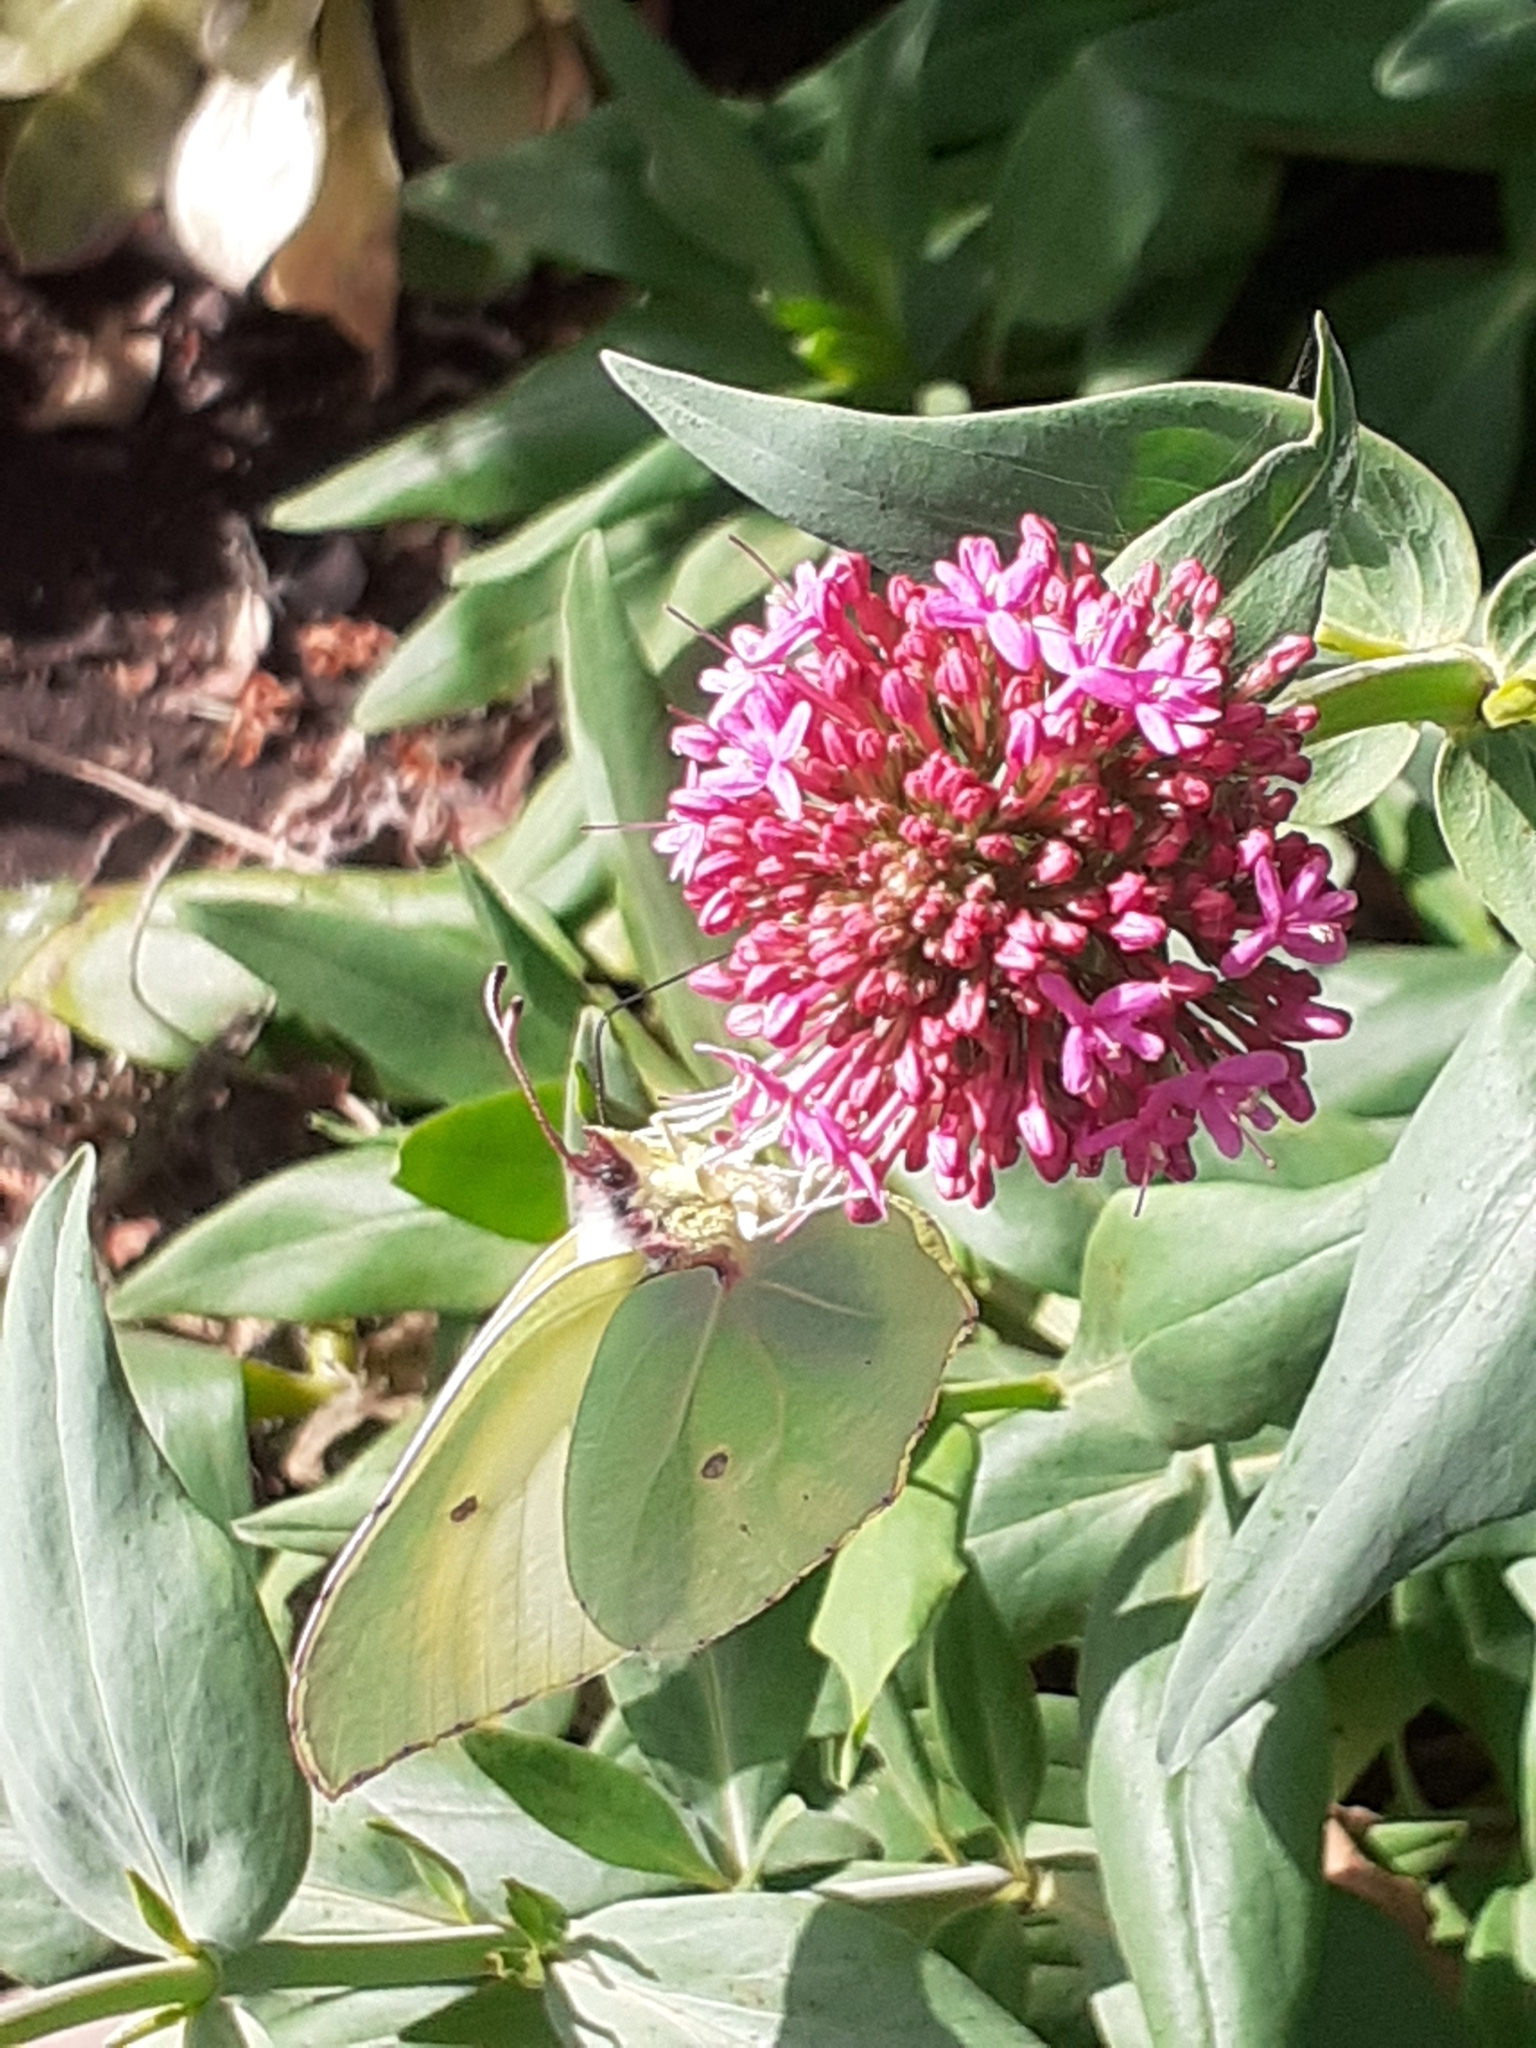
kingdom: Animalia
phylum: Arthropoda
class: Insecta
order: Lepidoptera
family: Pieridae
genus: Gonepteryx
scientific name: Gonepteryx cleobule
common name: Canary brimstone
